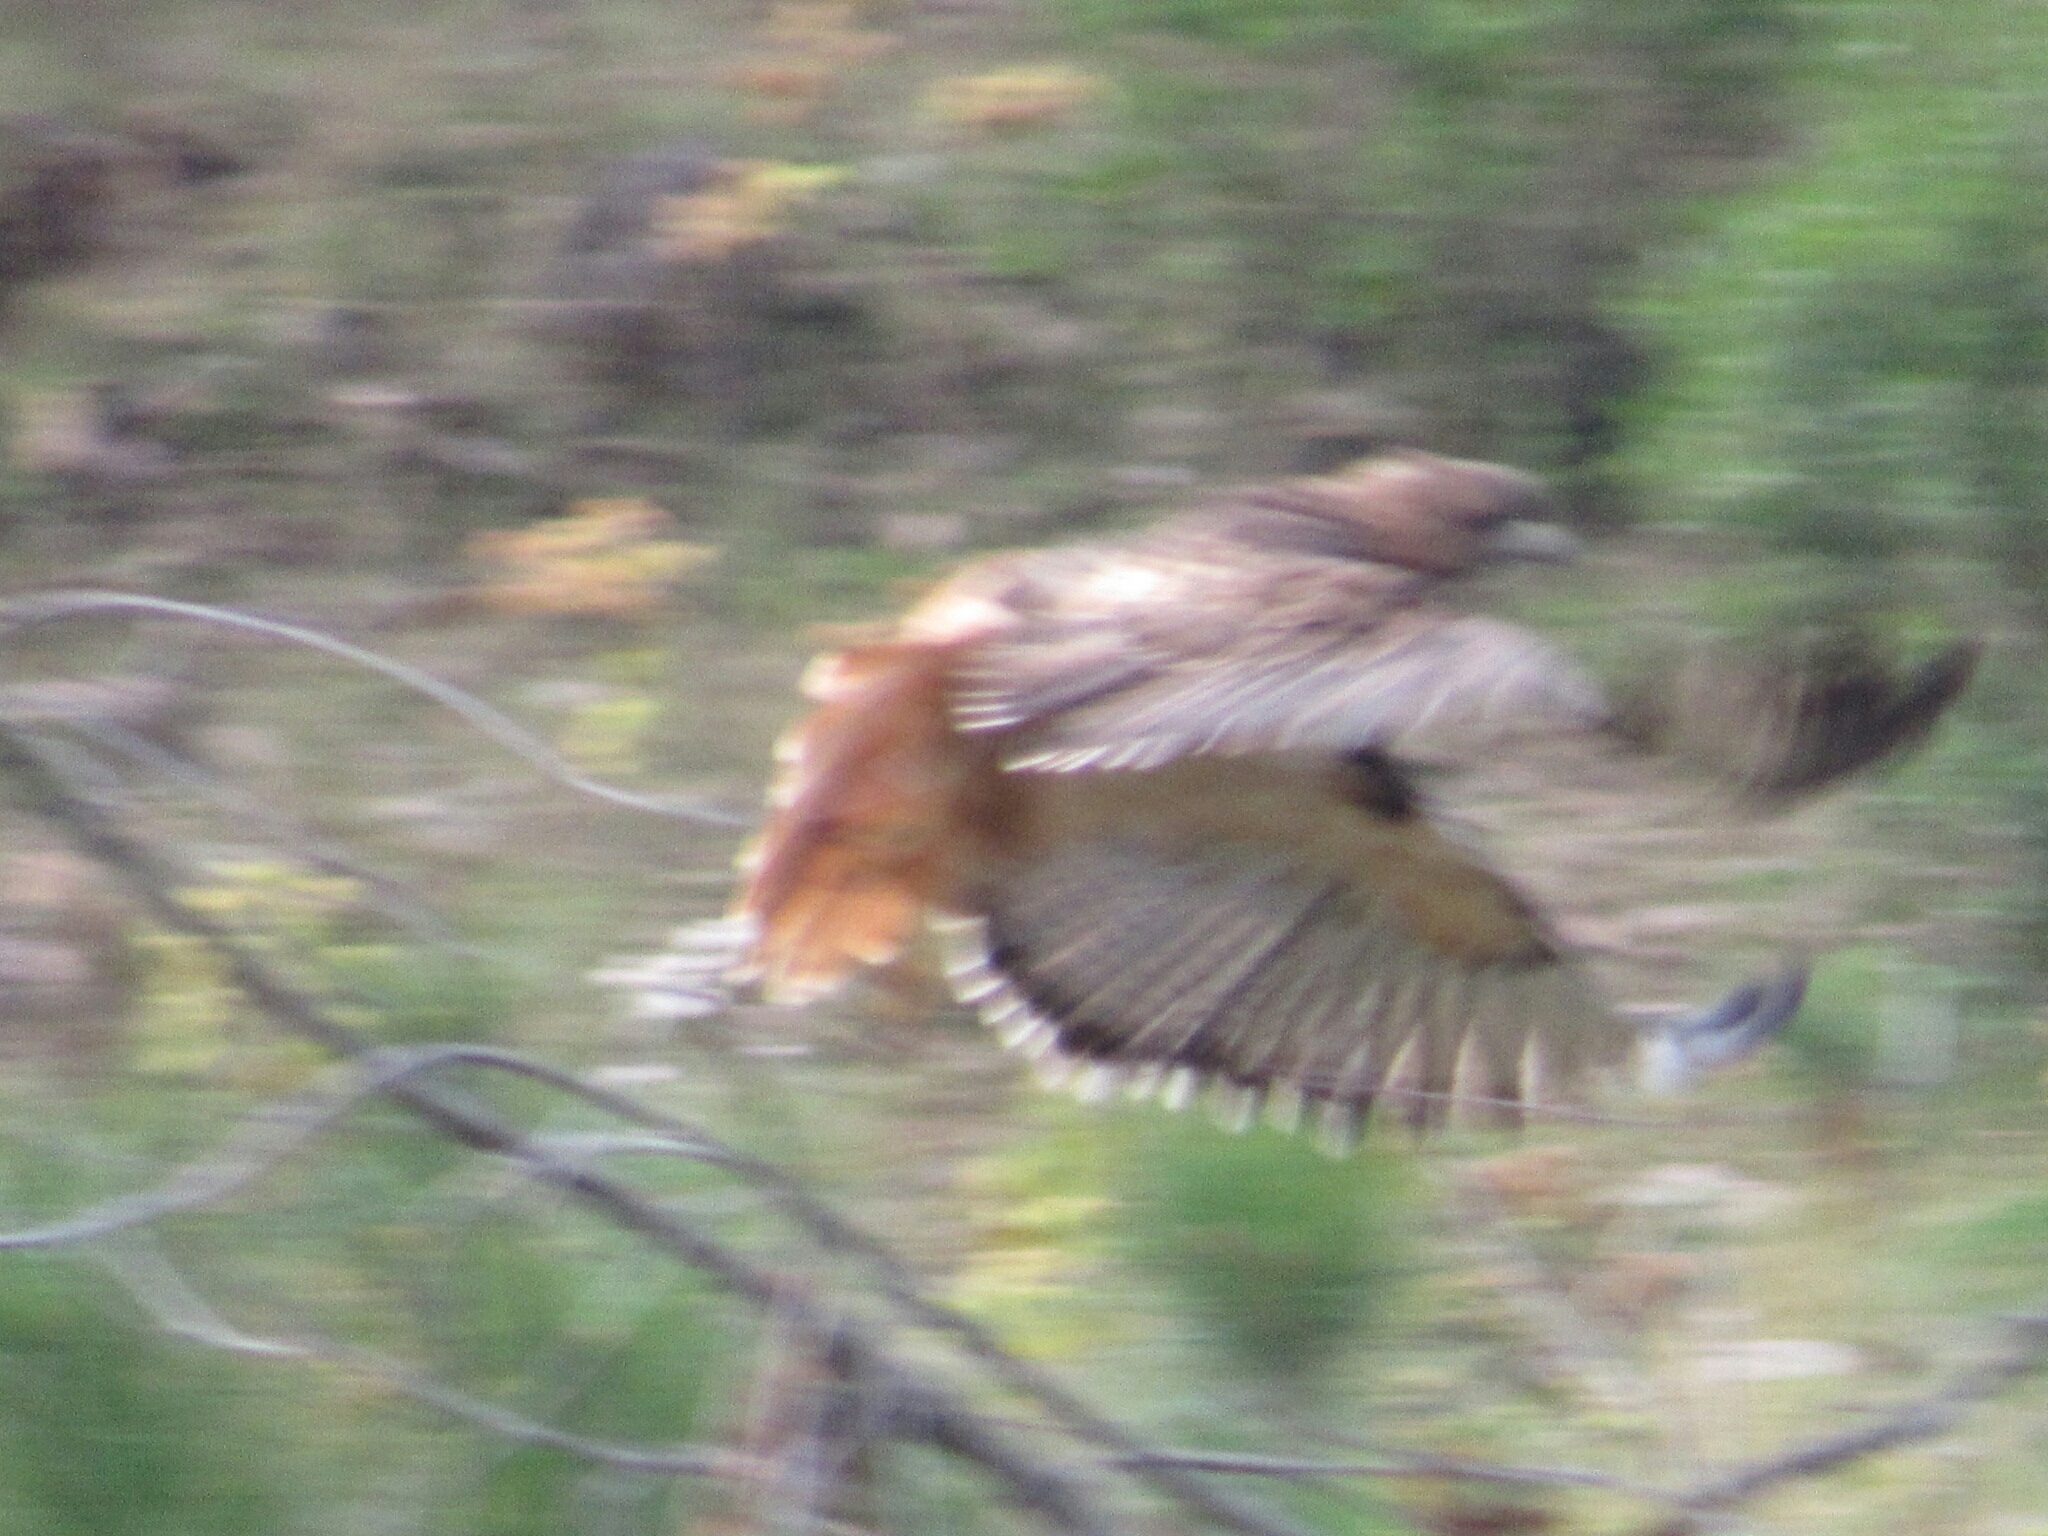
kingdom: Animalia
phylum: Chordata
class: Aves
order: Accipitriformes
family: Accipitridae
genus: Buteo
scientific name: Buteo jamaicensis
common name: Red-tailed hawk
